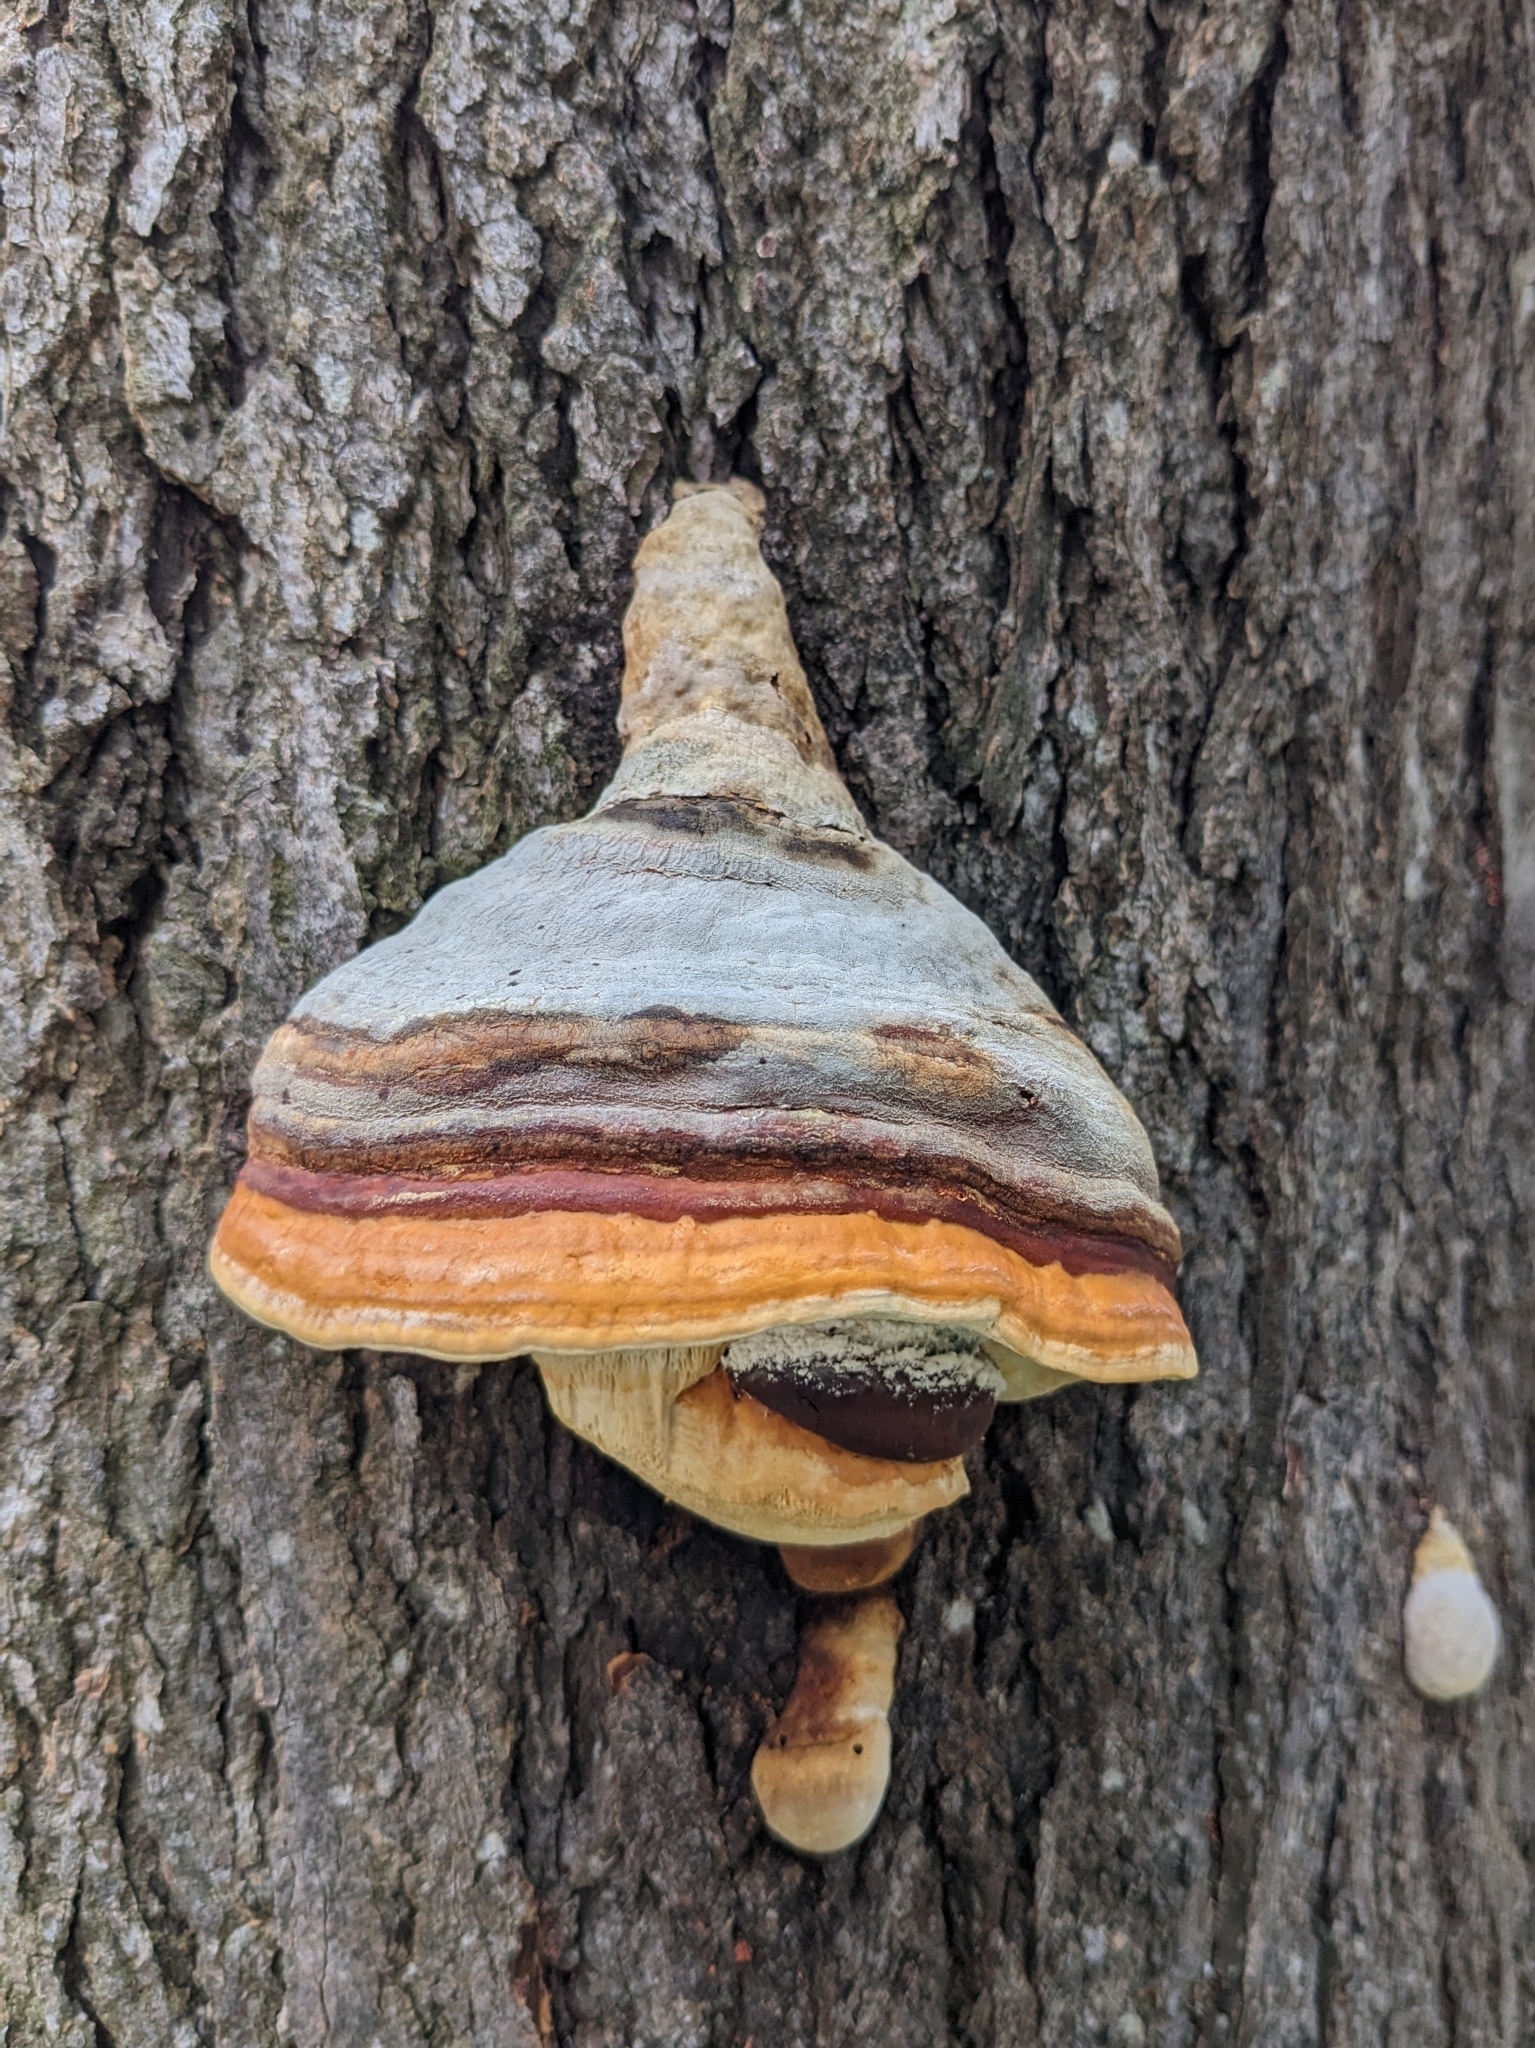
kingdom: Fungi
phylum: Basidiomycota
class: Agaricomycetes
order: Polyporales
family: Fomitopsidaceae
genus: Fomitopsis
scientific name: Fomitopsis pinicola
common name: Red-belted bracket
